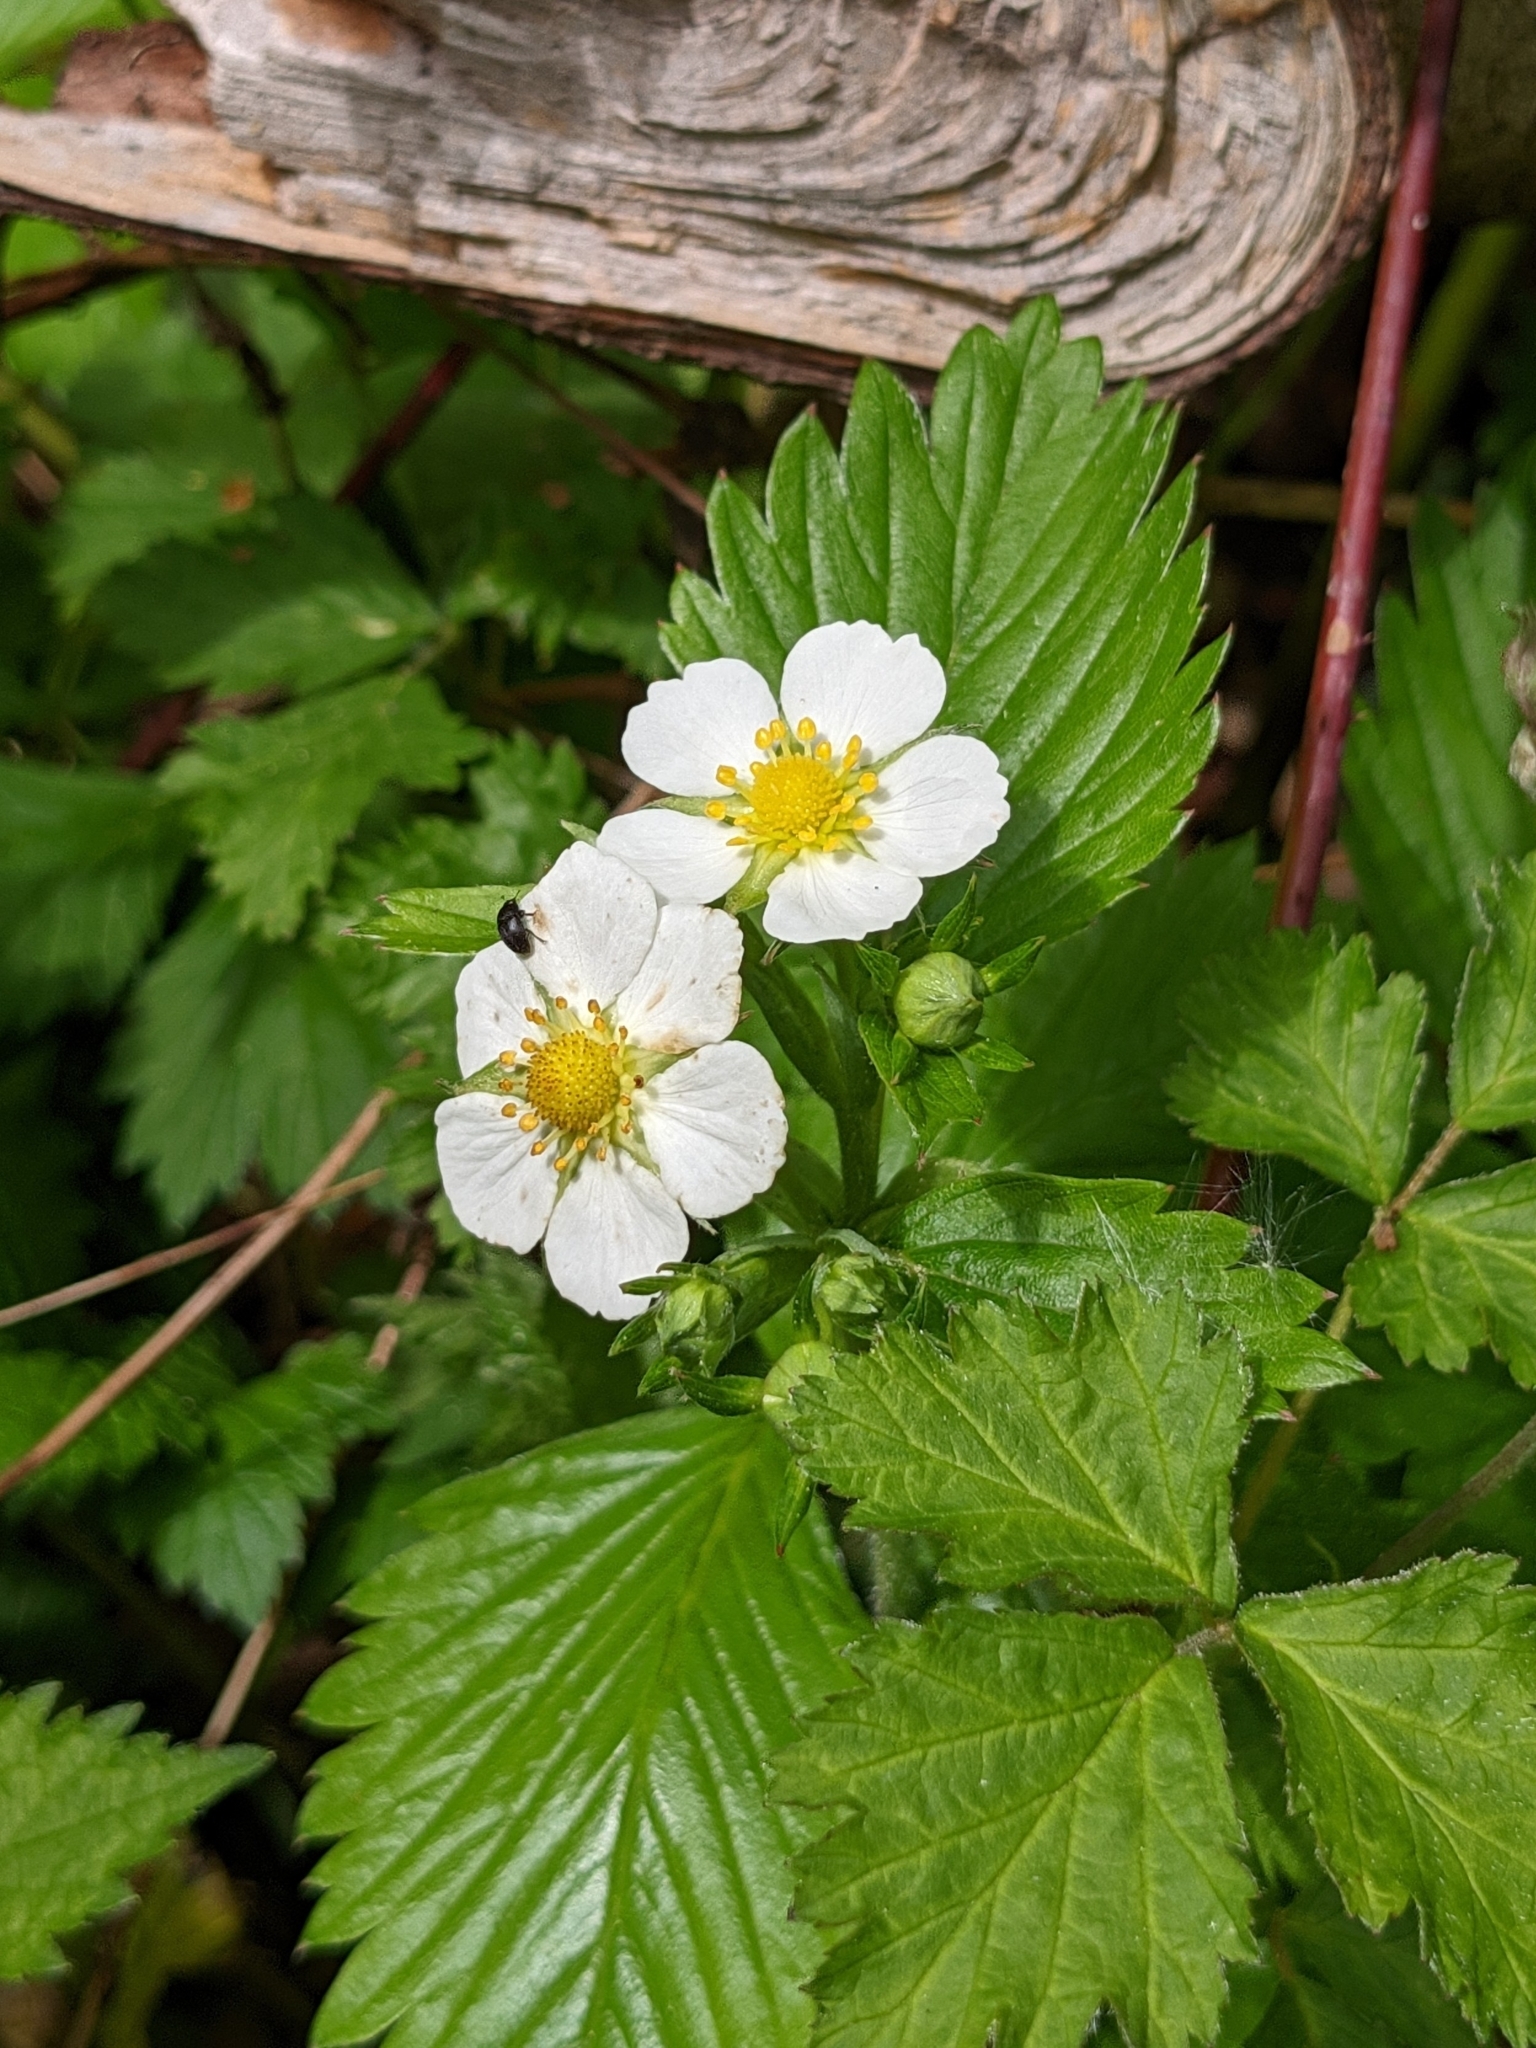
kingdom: Plantae
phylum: Tracheophyta
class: Magnoliopsida
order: Rosales
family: Rosaceae
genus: Fragaria
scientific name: Fragaria vesca
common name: Wild strawberry
